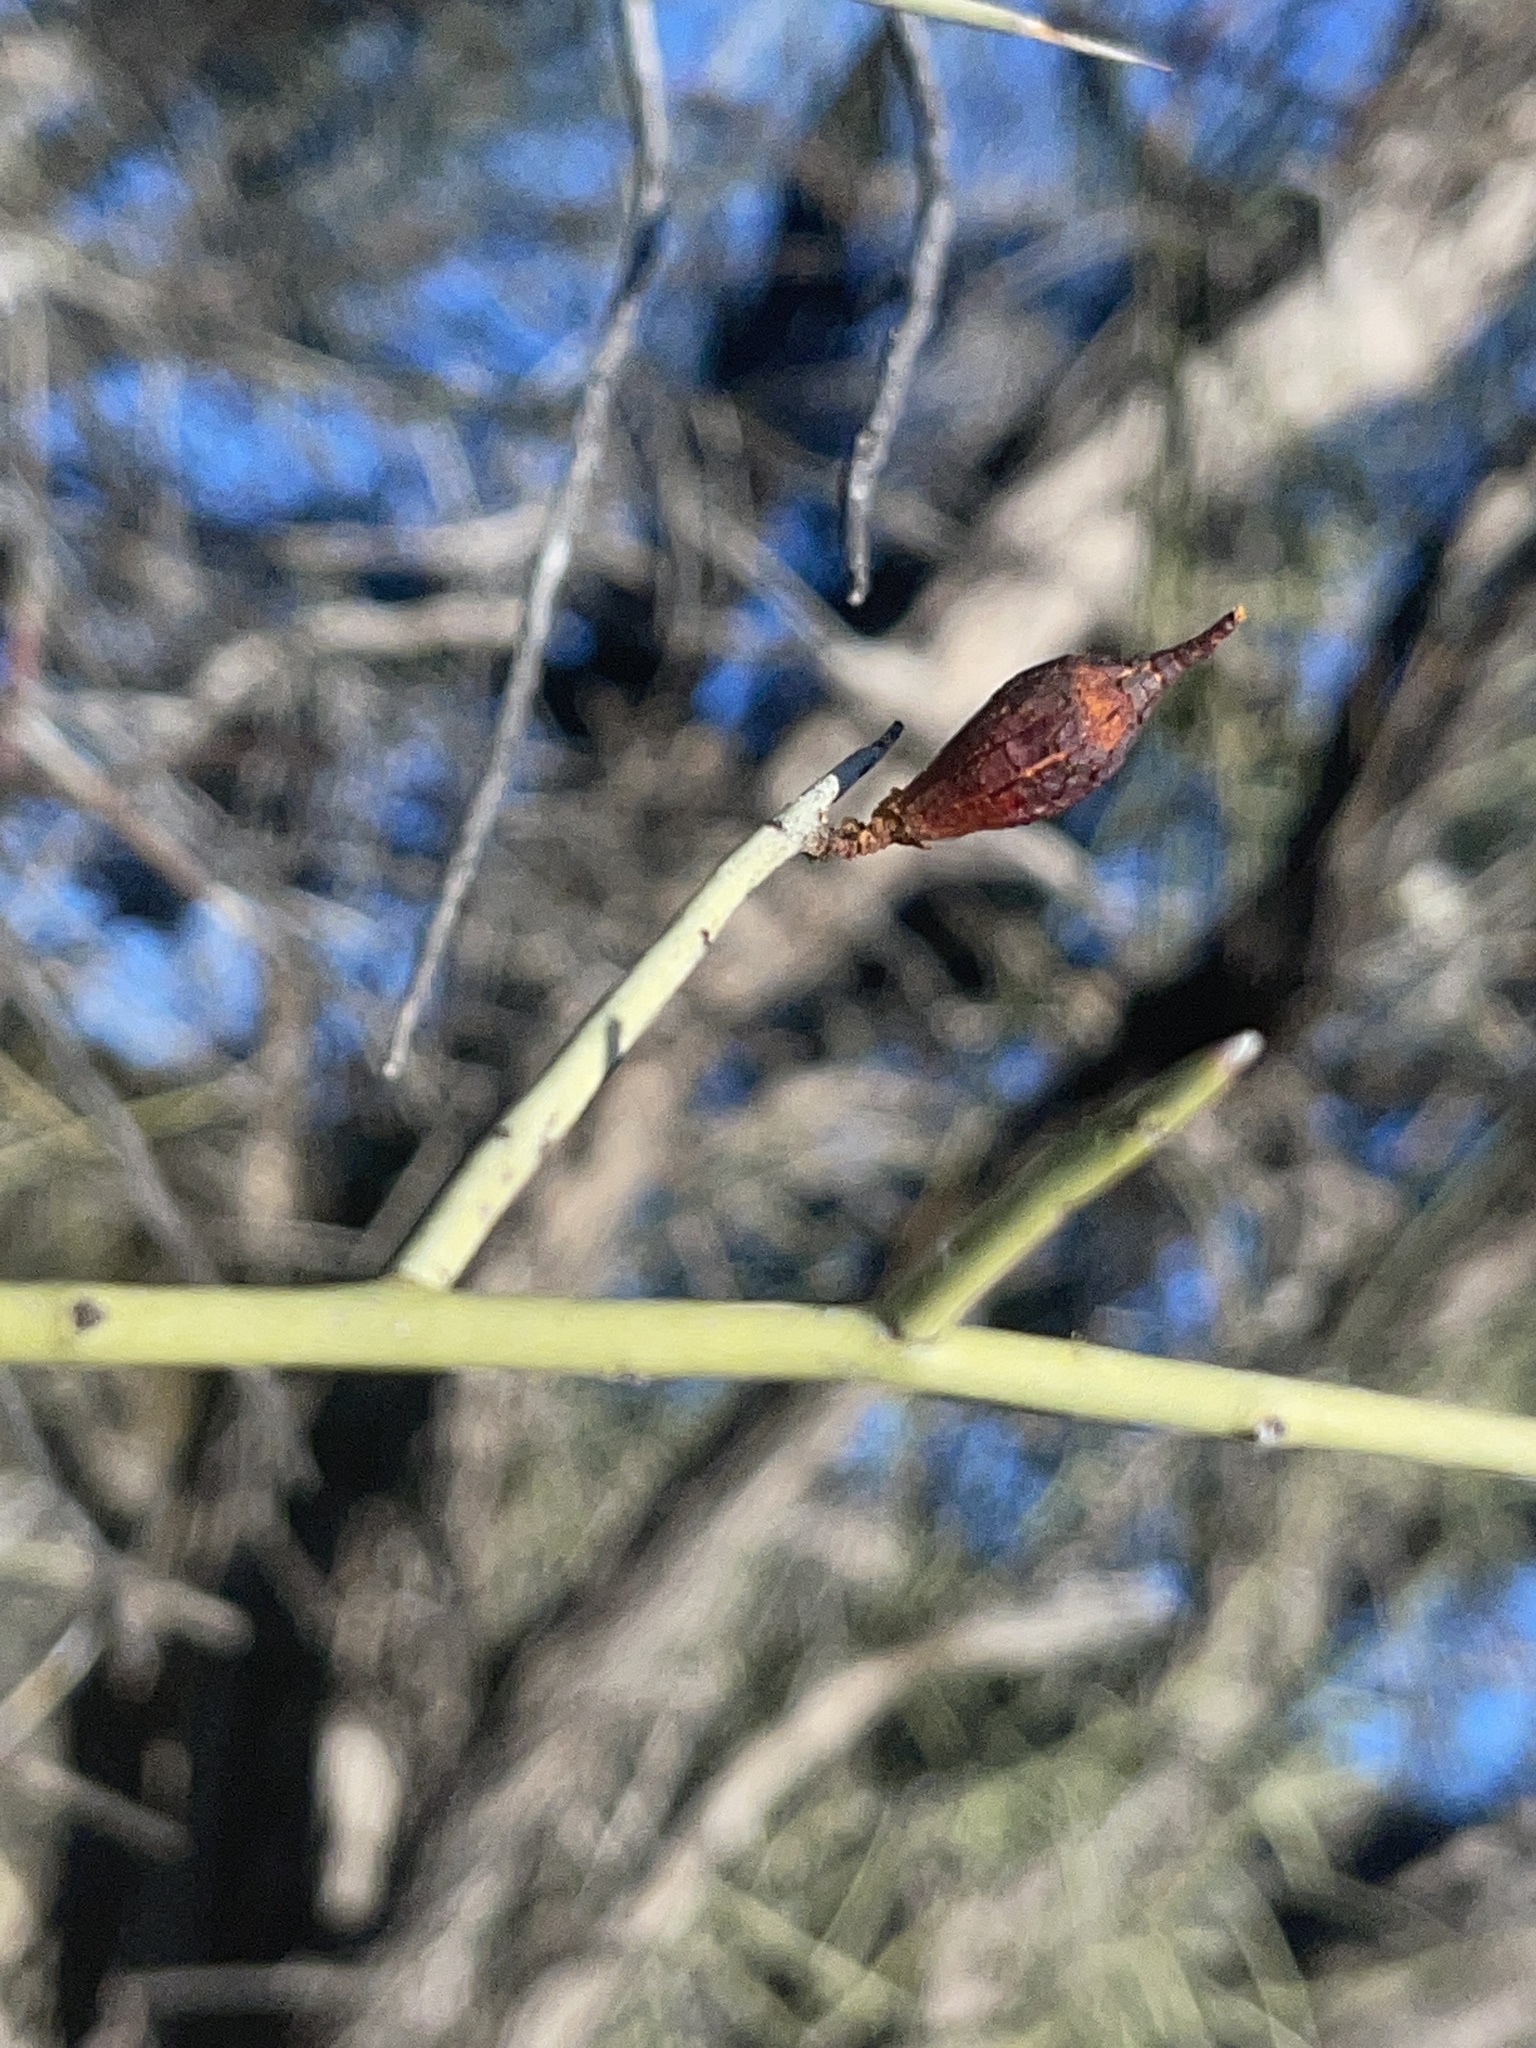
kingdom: Plantae
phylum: Tracheophyta
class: Magnoliopsida
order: Celastrales
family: Celastraceae
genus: Canotia
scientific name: Canotia holacantha
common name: Crucifixion thorns
